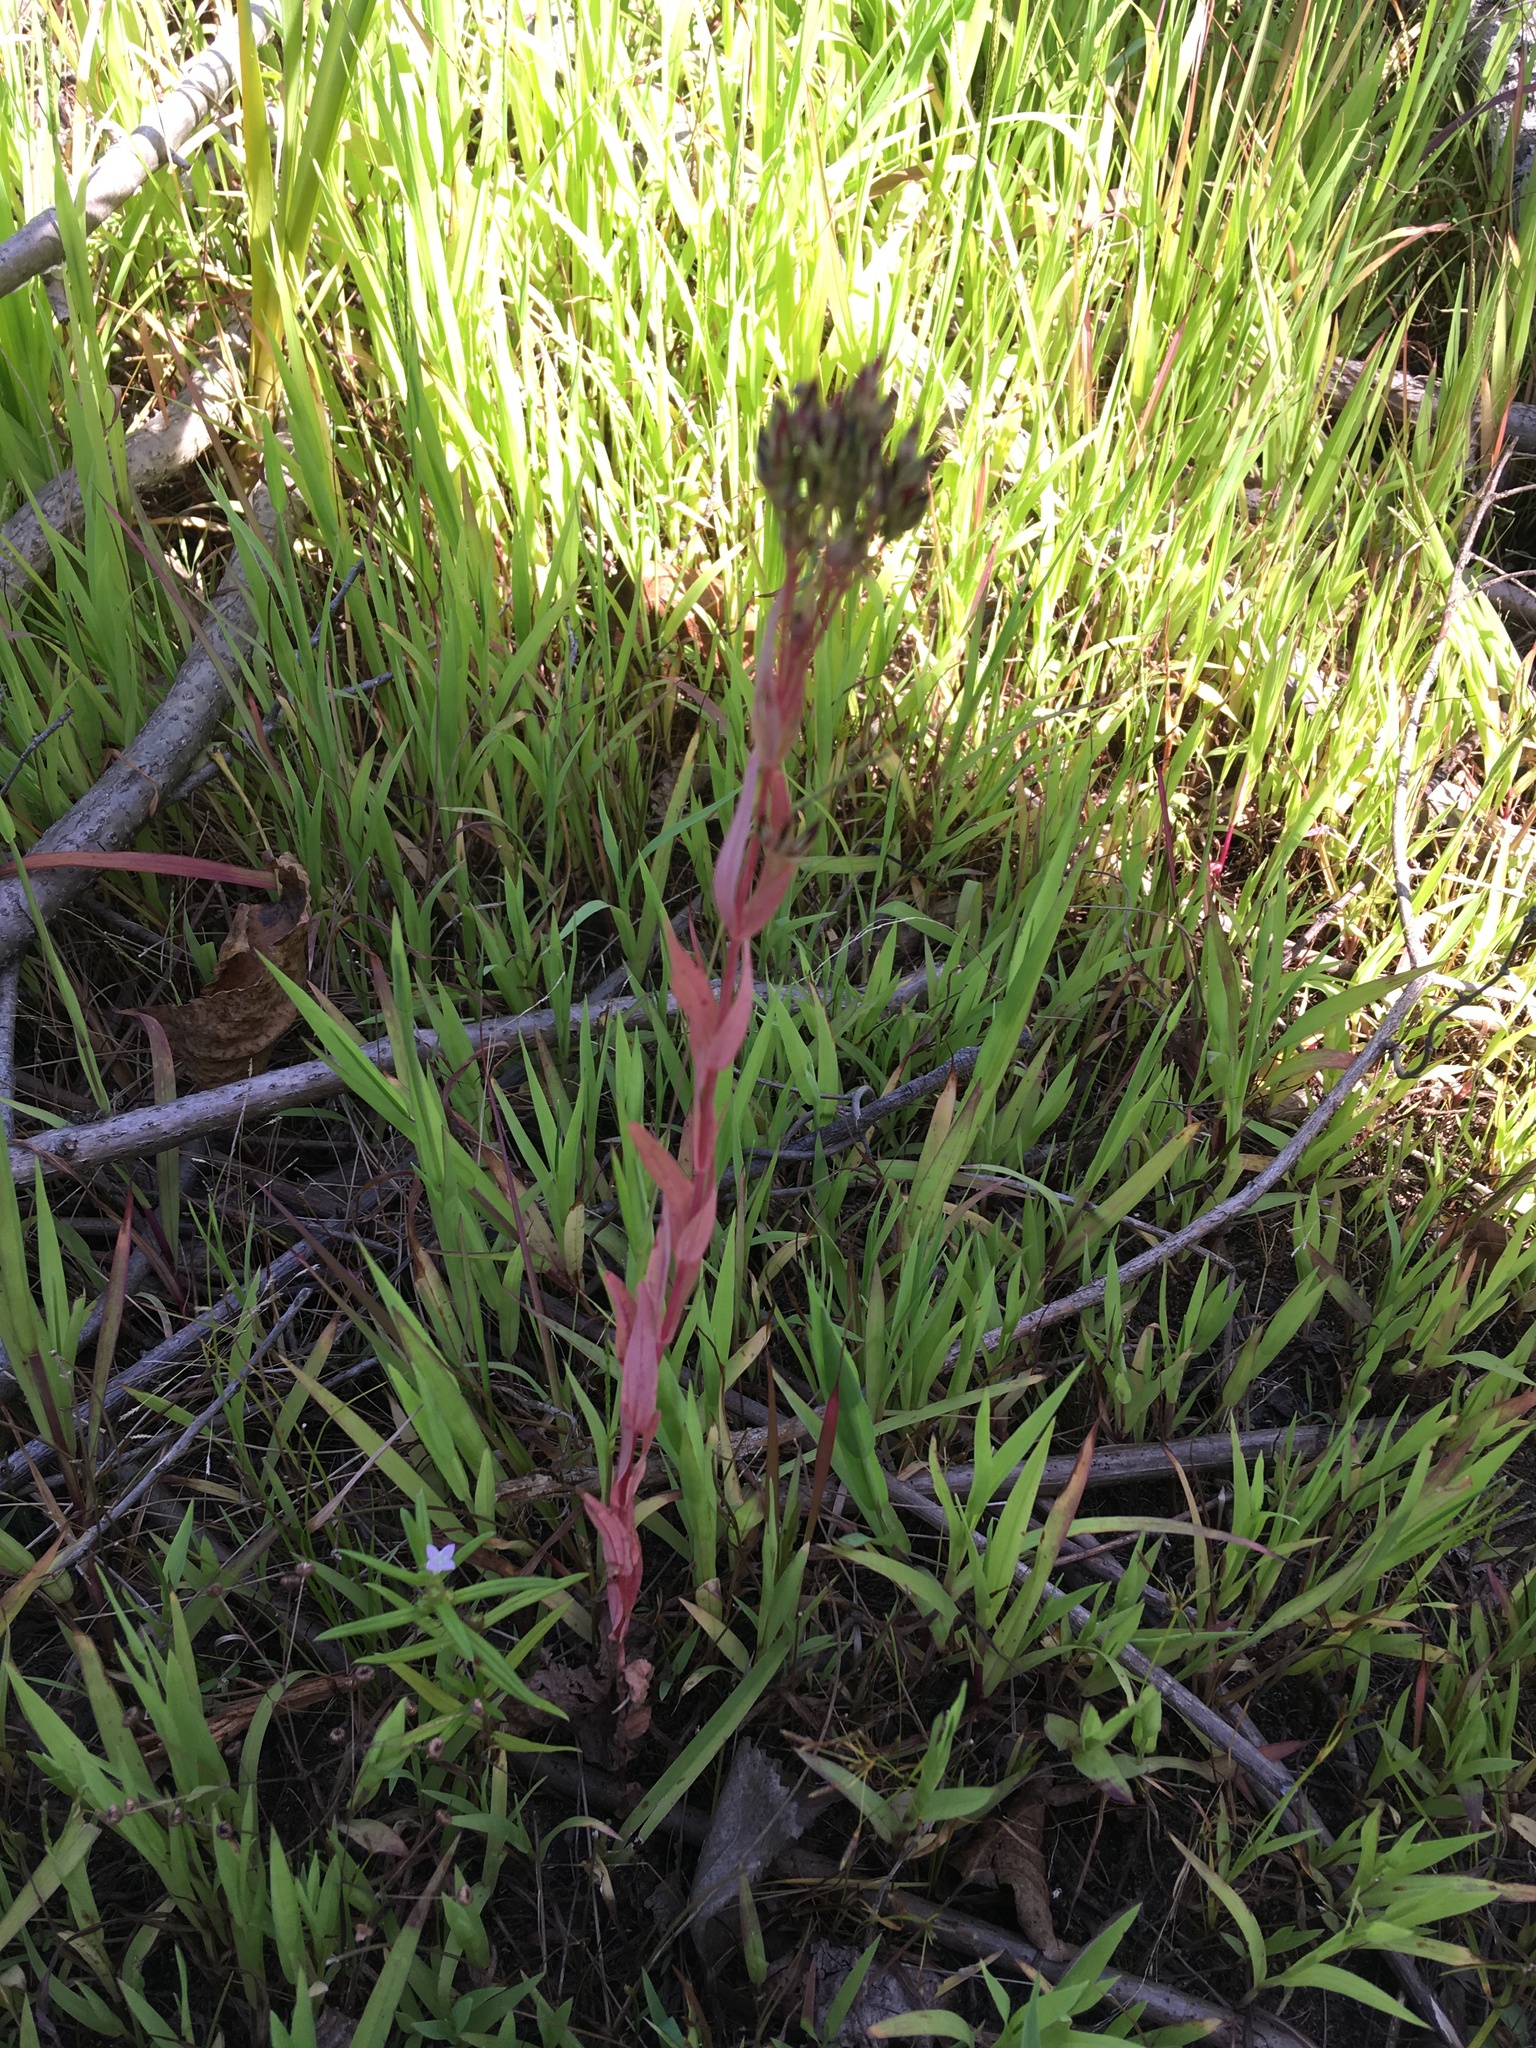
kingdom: Plantae
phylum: Tracheophyta
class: Magnoliopsida
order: Malpighiales
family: Hypericaceae
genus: Hypericum
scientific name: Hypericum majus
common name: Greater canadian st. john's-wort
